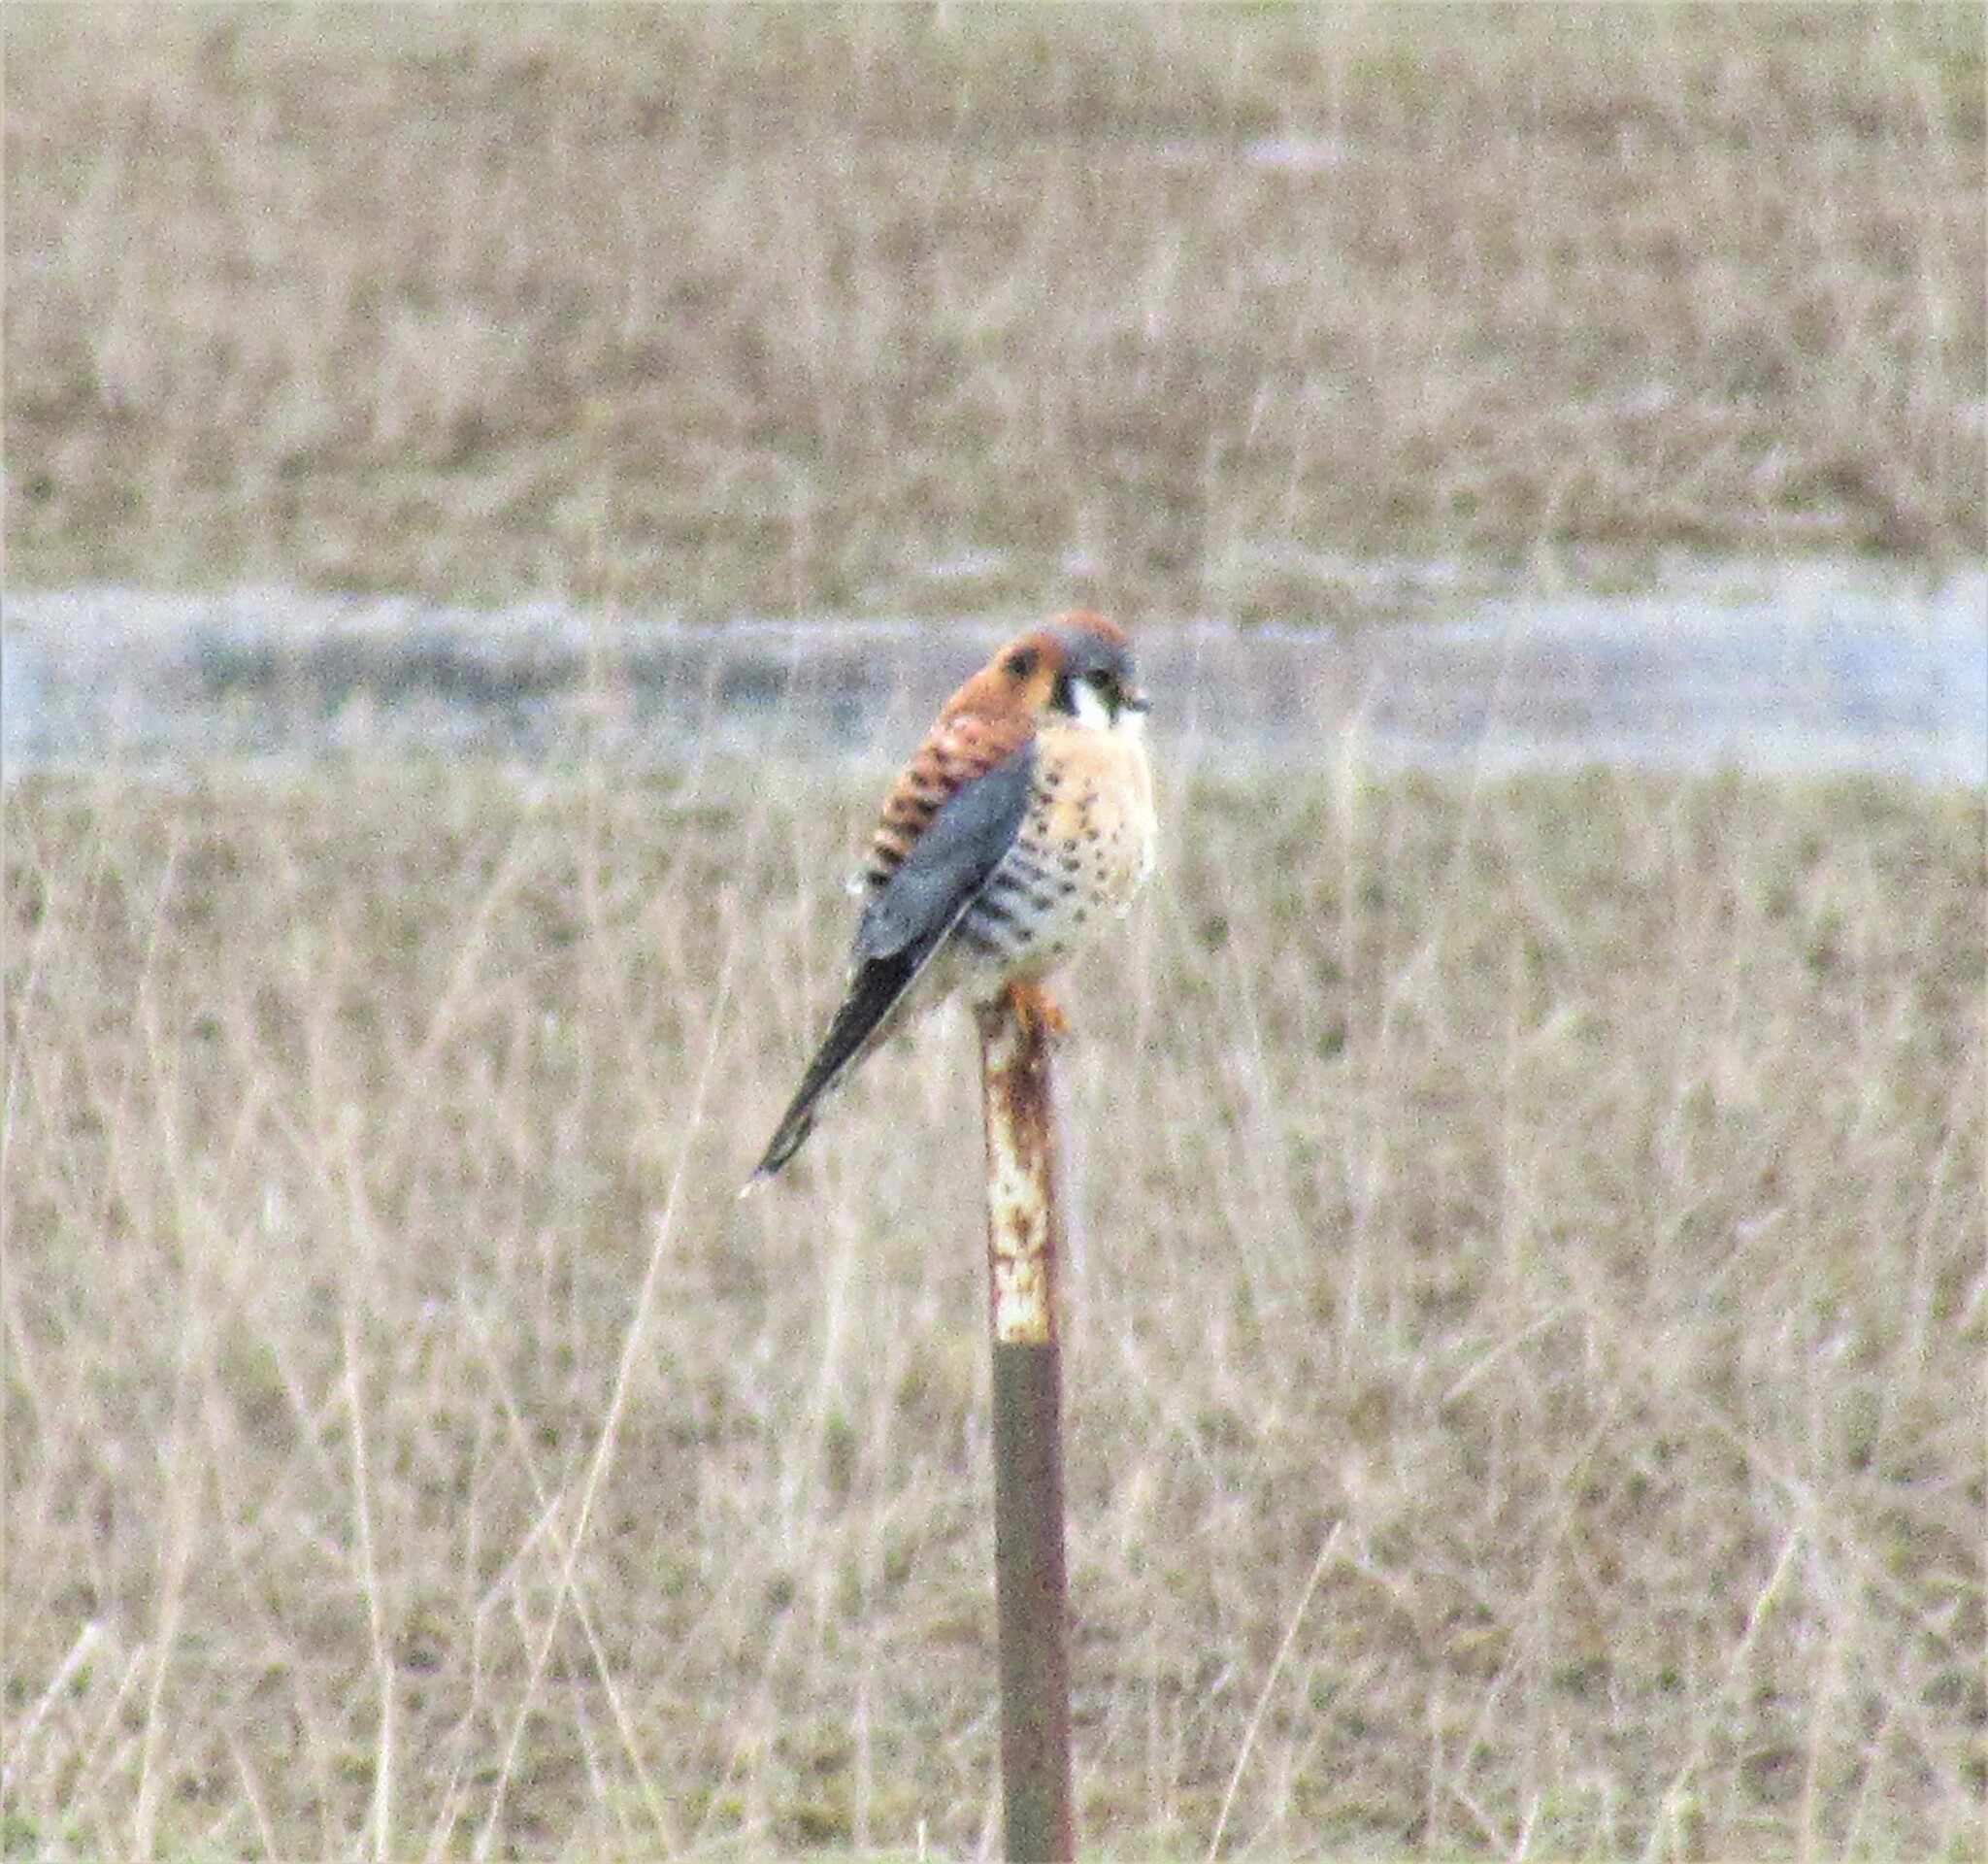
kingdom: Animalia
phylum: Chordata
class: Aves
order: Falconiformes
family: Falconidae
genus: Falco
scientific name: Falco sparverius
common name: American kestrel
